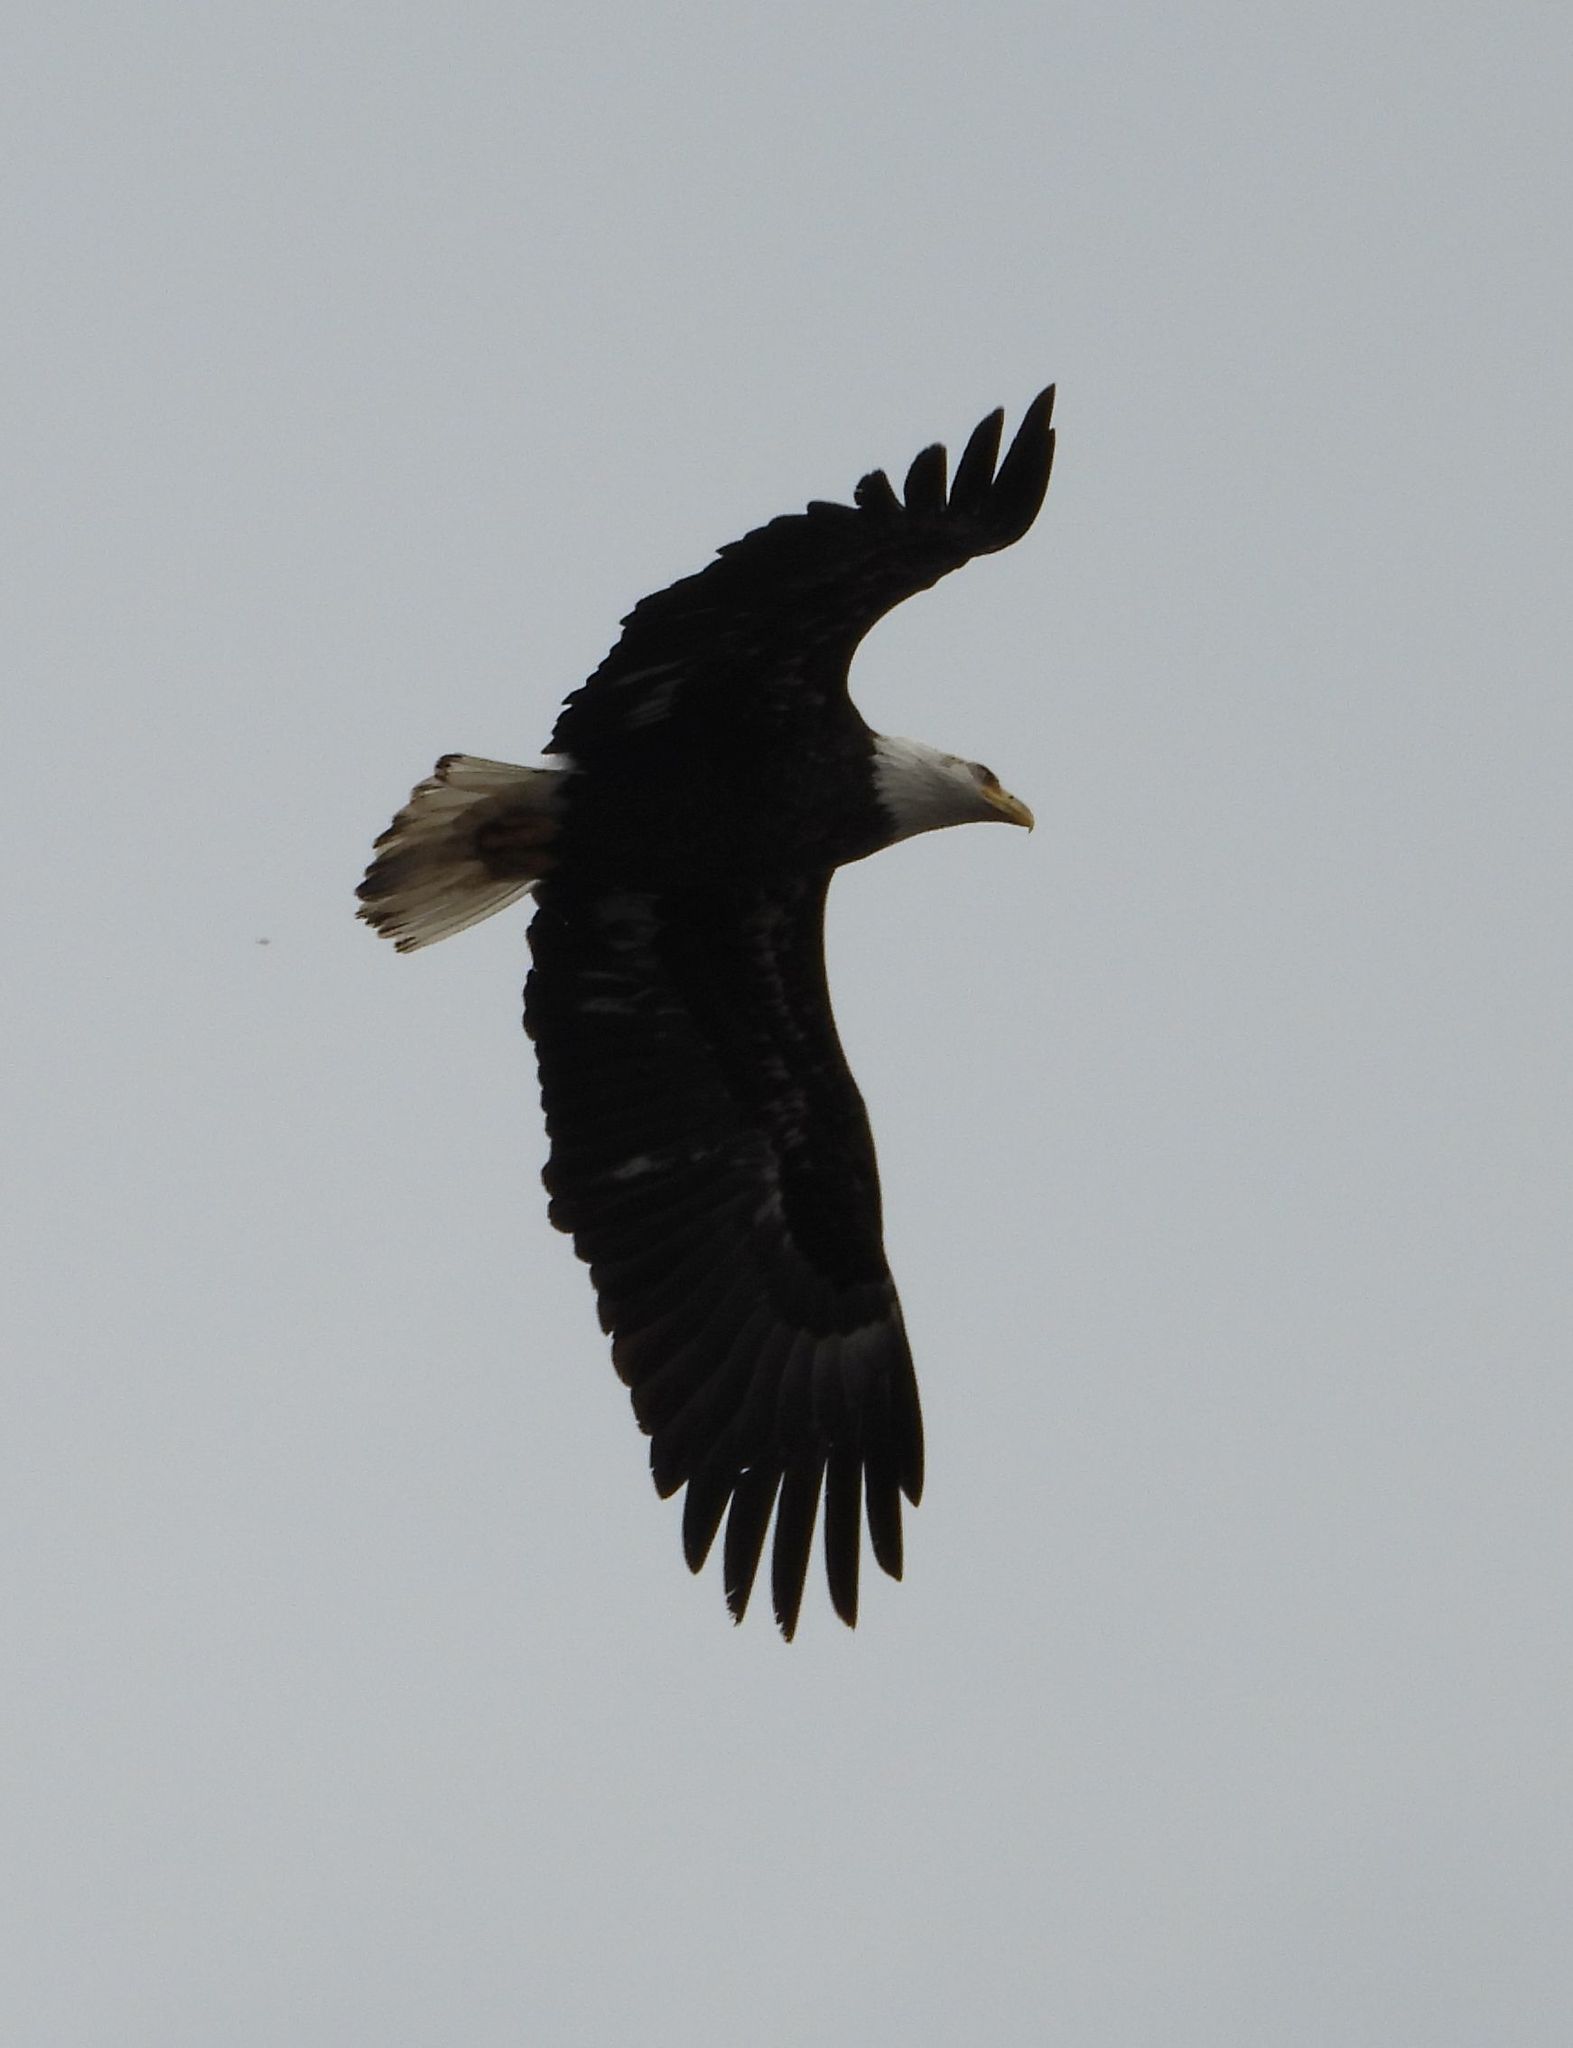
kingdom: Animalia
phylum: Chordata
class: Aves
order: Accipitriformes
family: Accipitridae
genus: Haliaeetus
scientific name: Haliaeetus leucocephalus
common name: Bald eagle
